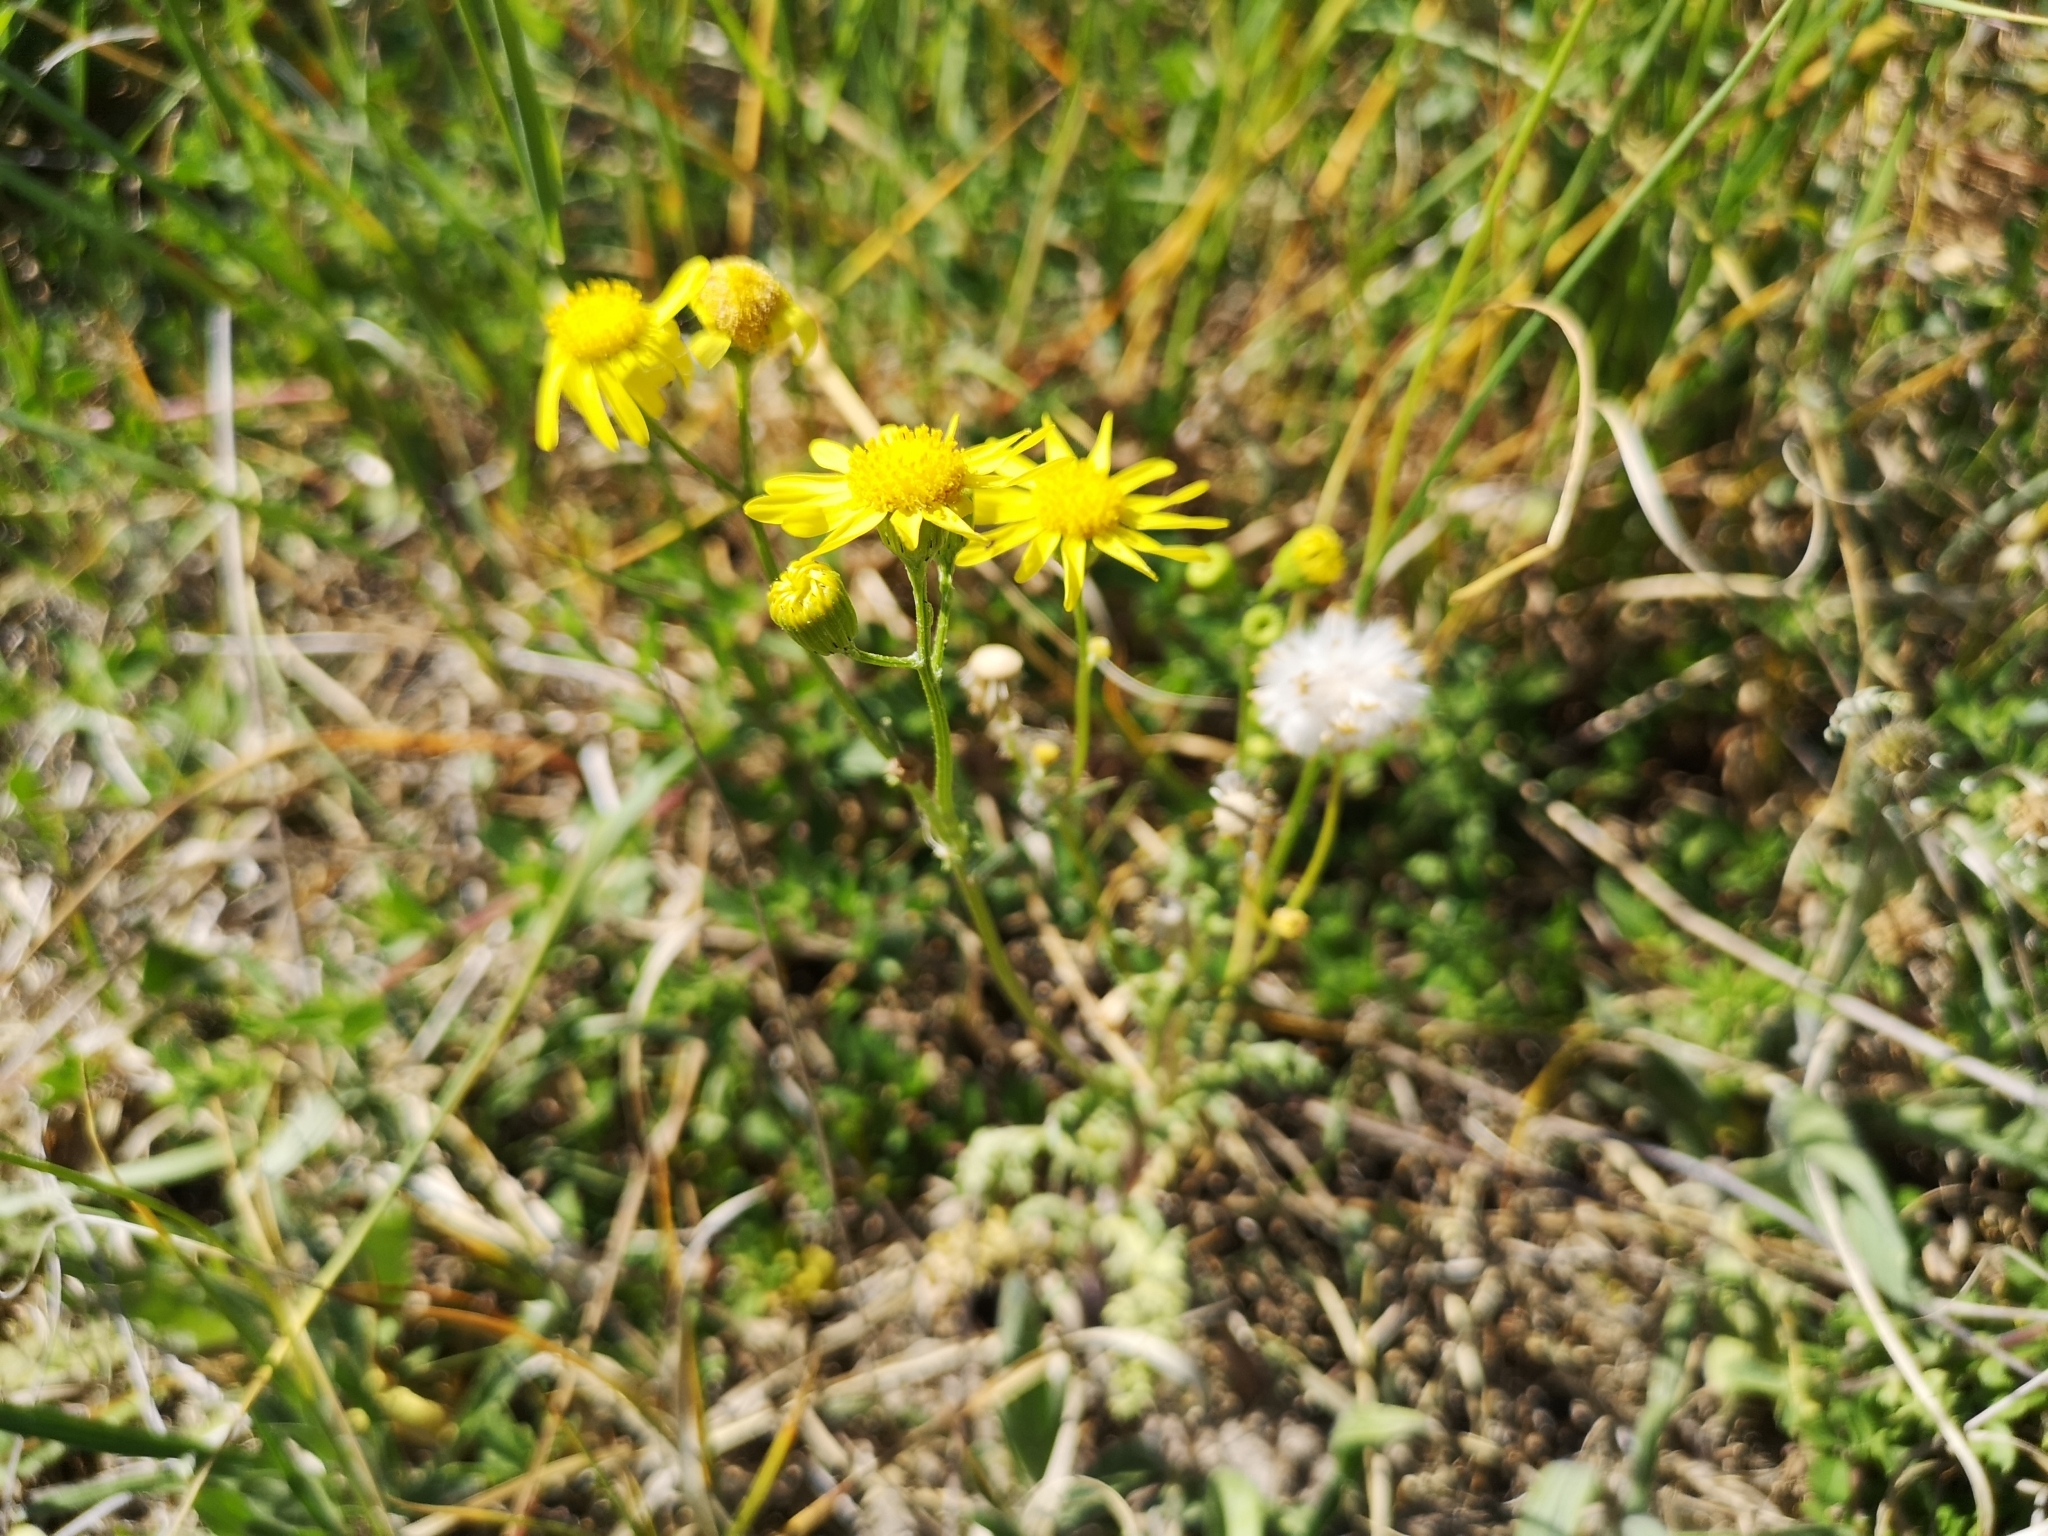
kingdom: Plantae
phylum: Tracheophyta
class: Magnoliopsida
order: Asterales
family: Asteraceae
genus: Senecio
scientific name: Senecio vernalis
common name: Eastern groundsel
